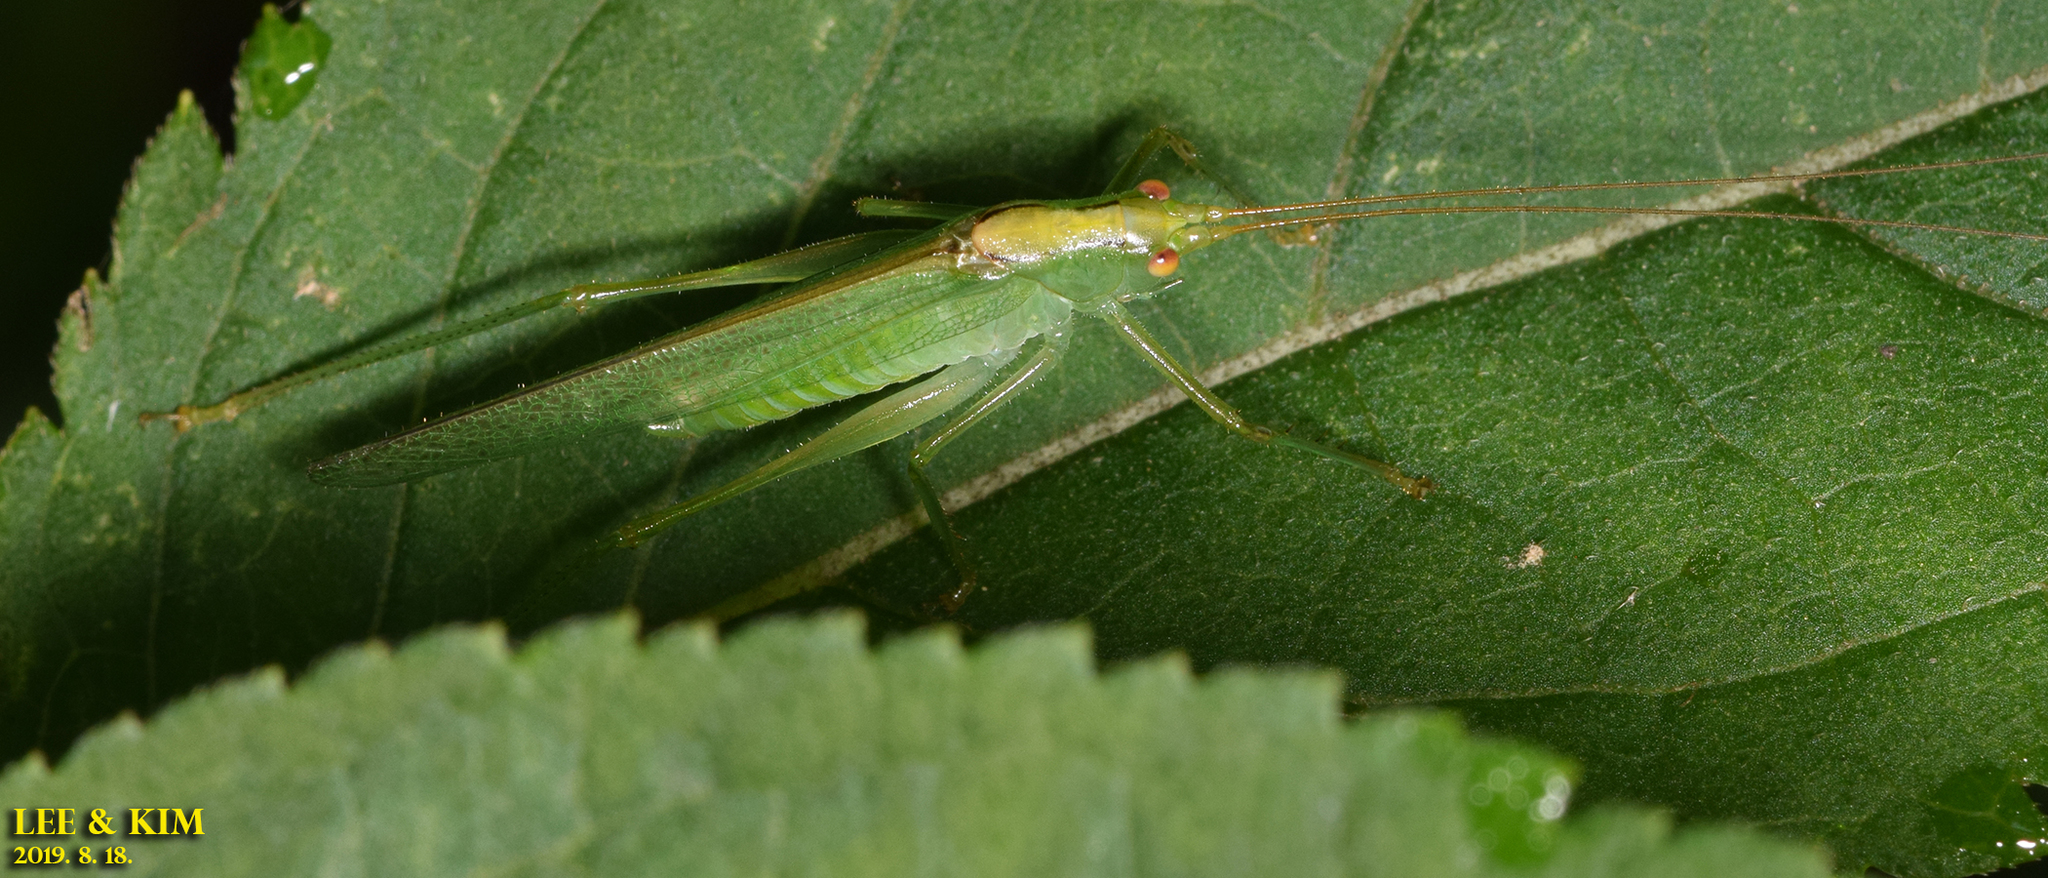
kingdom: Animalia
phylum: Arthropoda
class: Insecta
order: Orthoptera
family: Tettigoniidae
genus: Xizicus
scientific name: Xizicus coreanus
